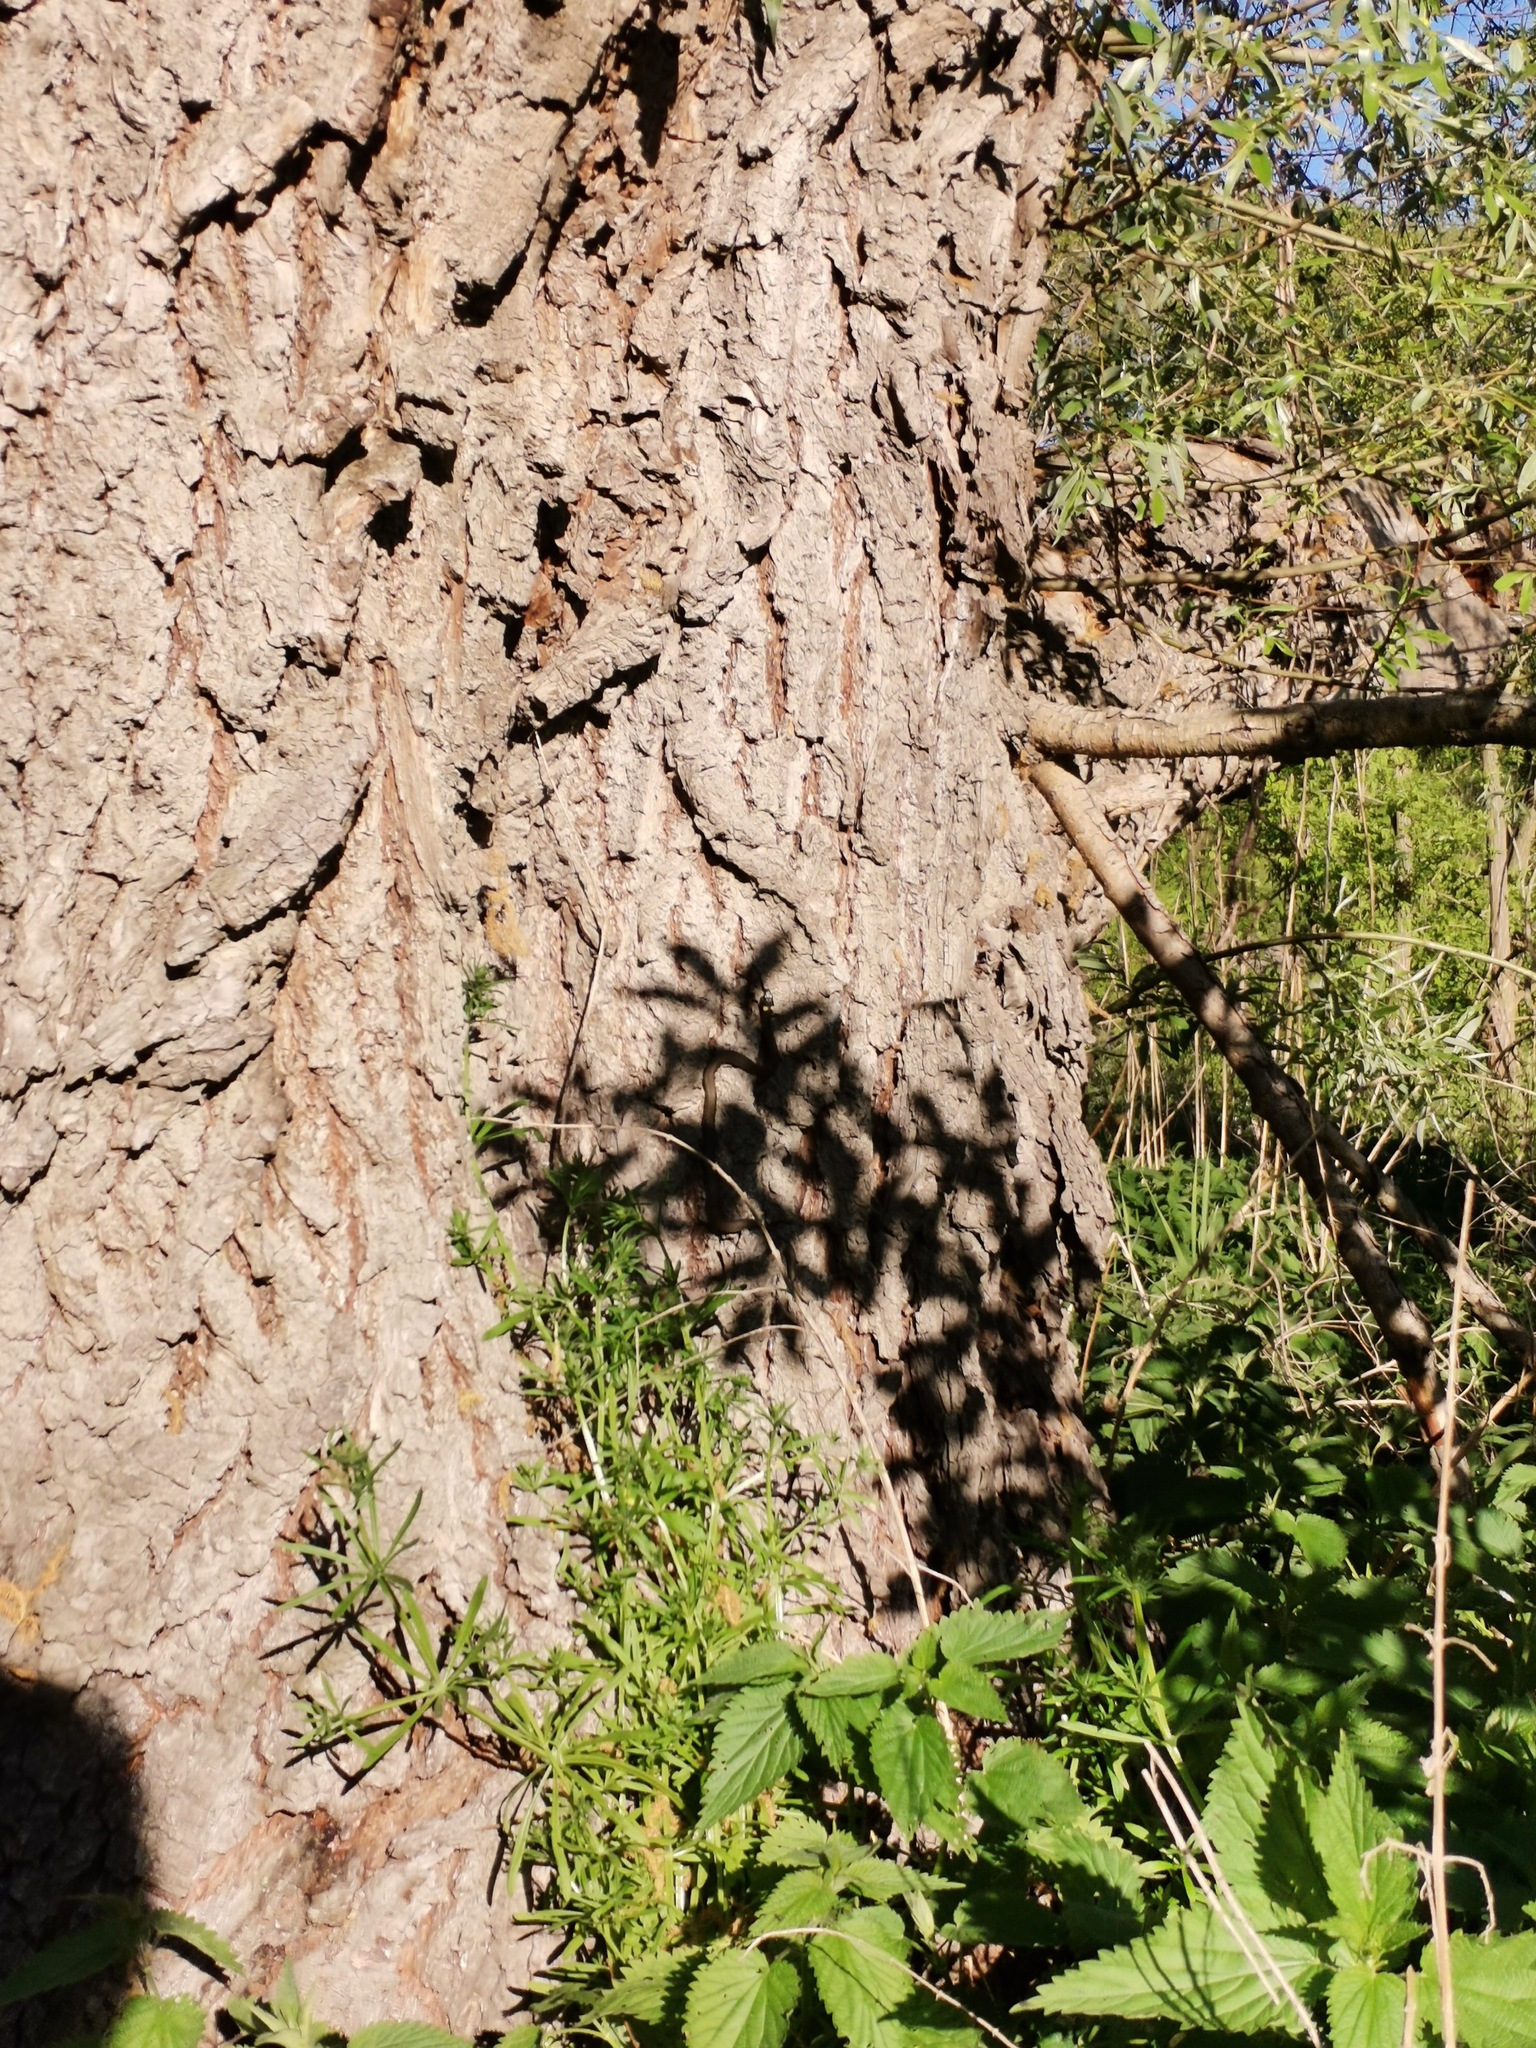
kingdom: Animalia
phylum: Chordata
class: Squamata
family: Colubridae
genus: Natrix
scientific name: Natrix natrix
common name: Grass snake
